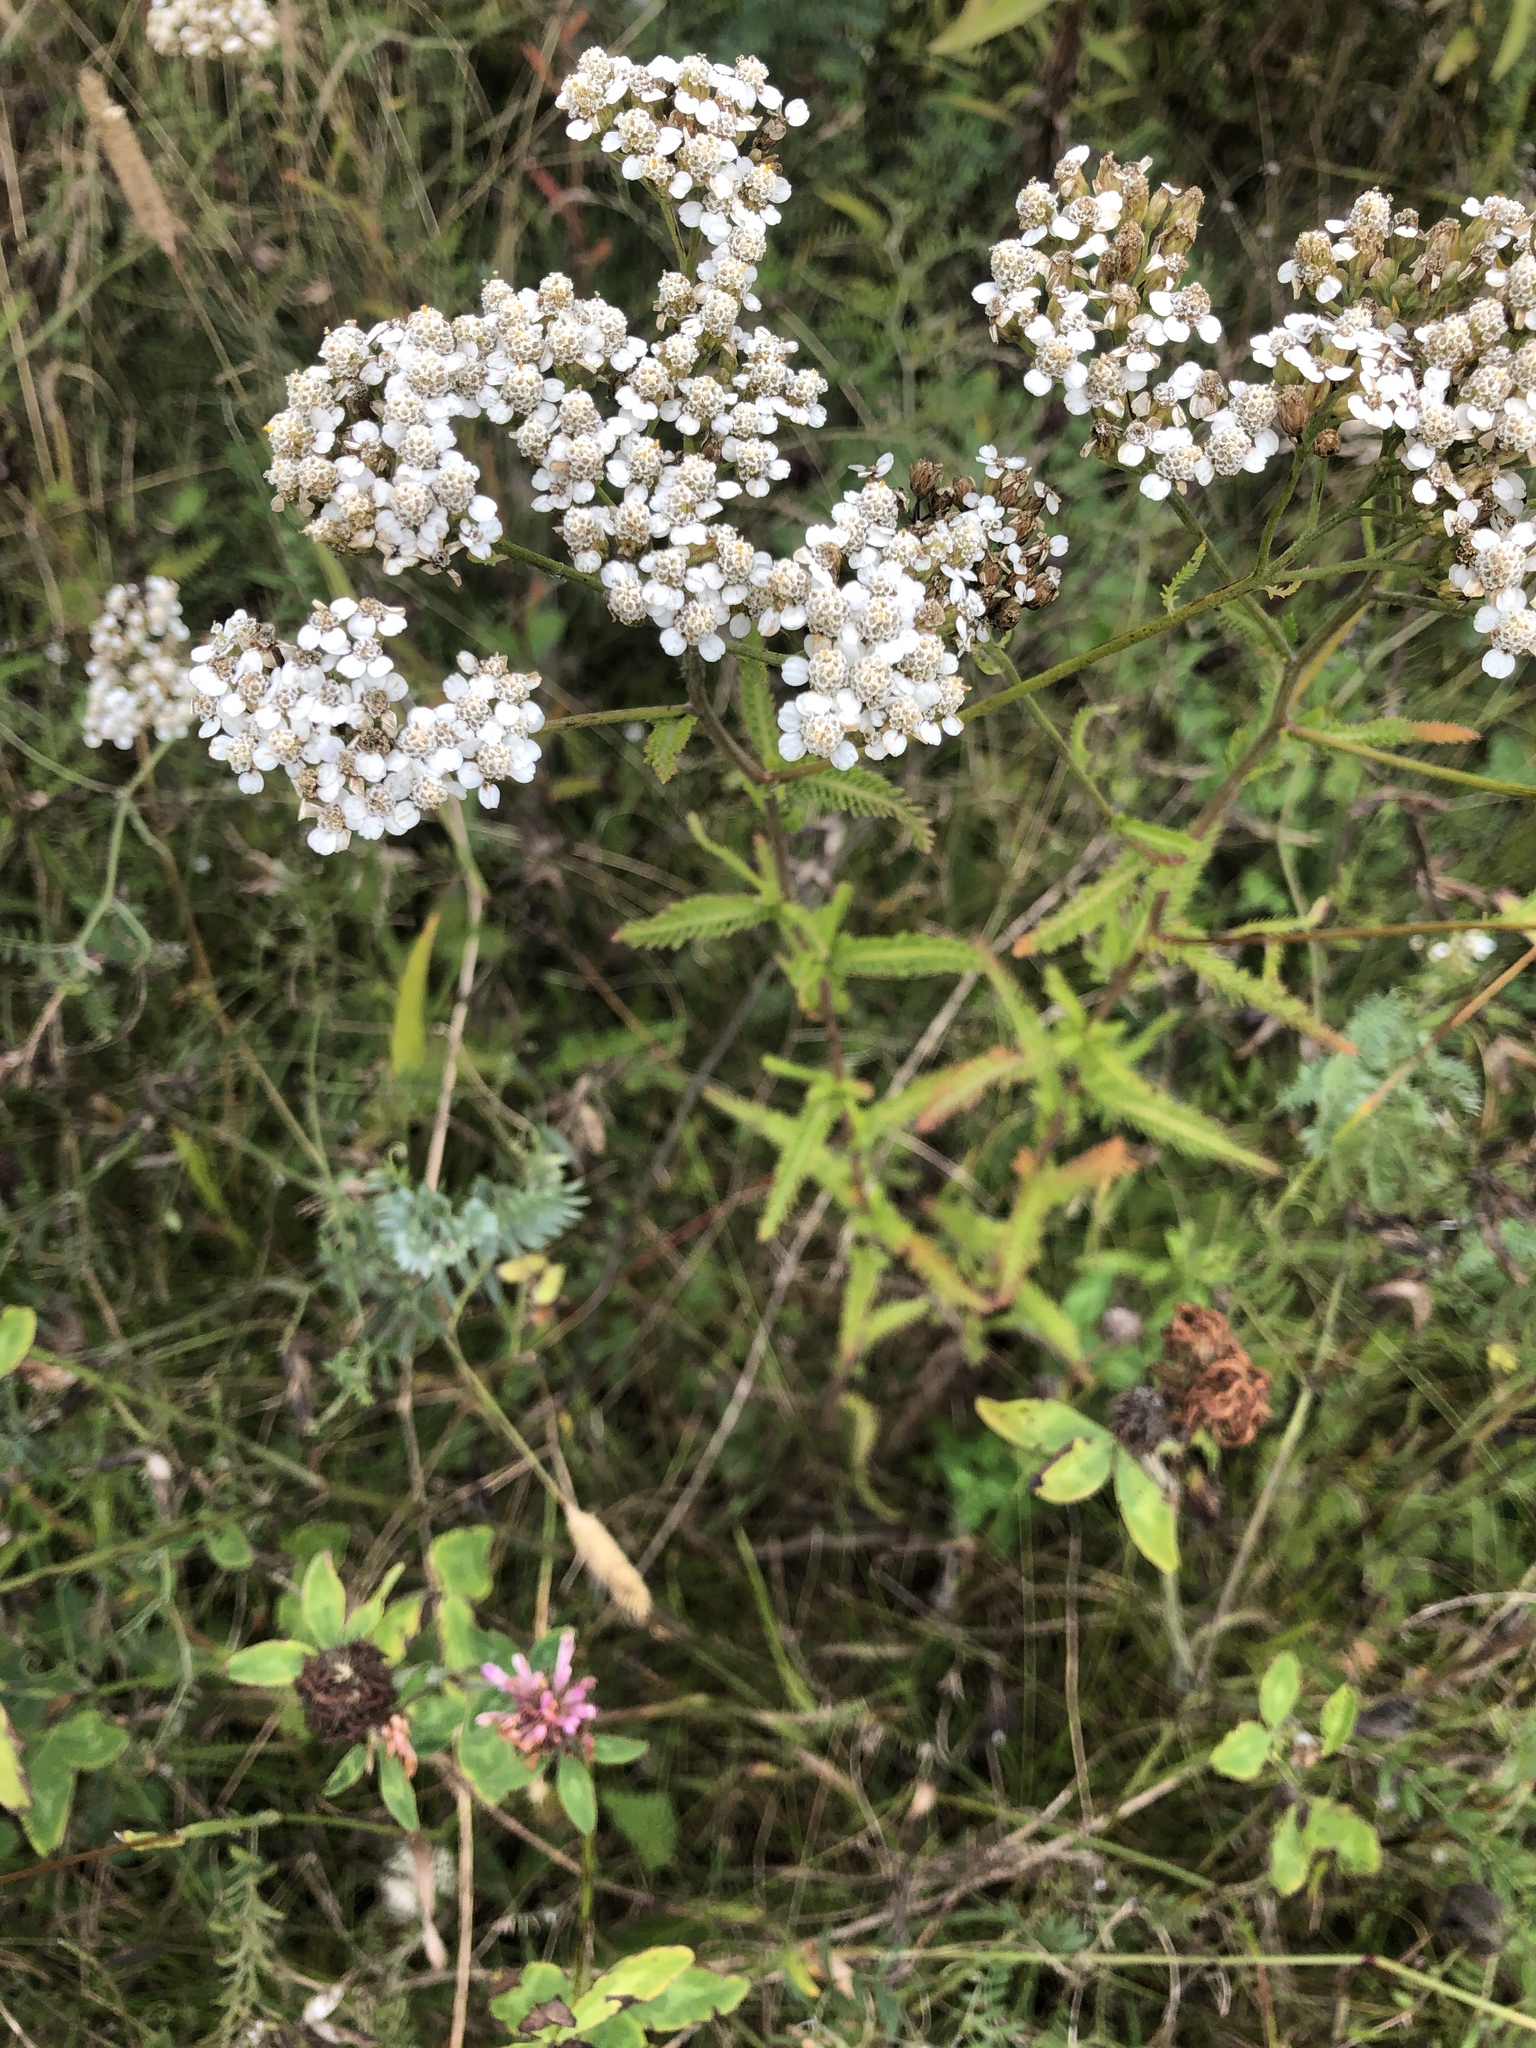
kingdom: Plantae
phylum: Tracheophyta
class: Magnoliopsida
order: Asterales
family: Asteraceae
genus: Achillea
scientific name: Achillea millefolium
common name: Yarrow
